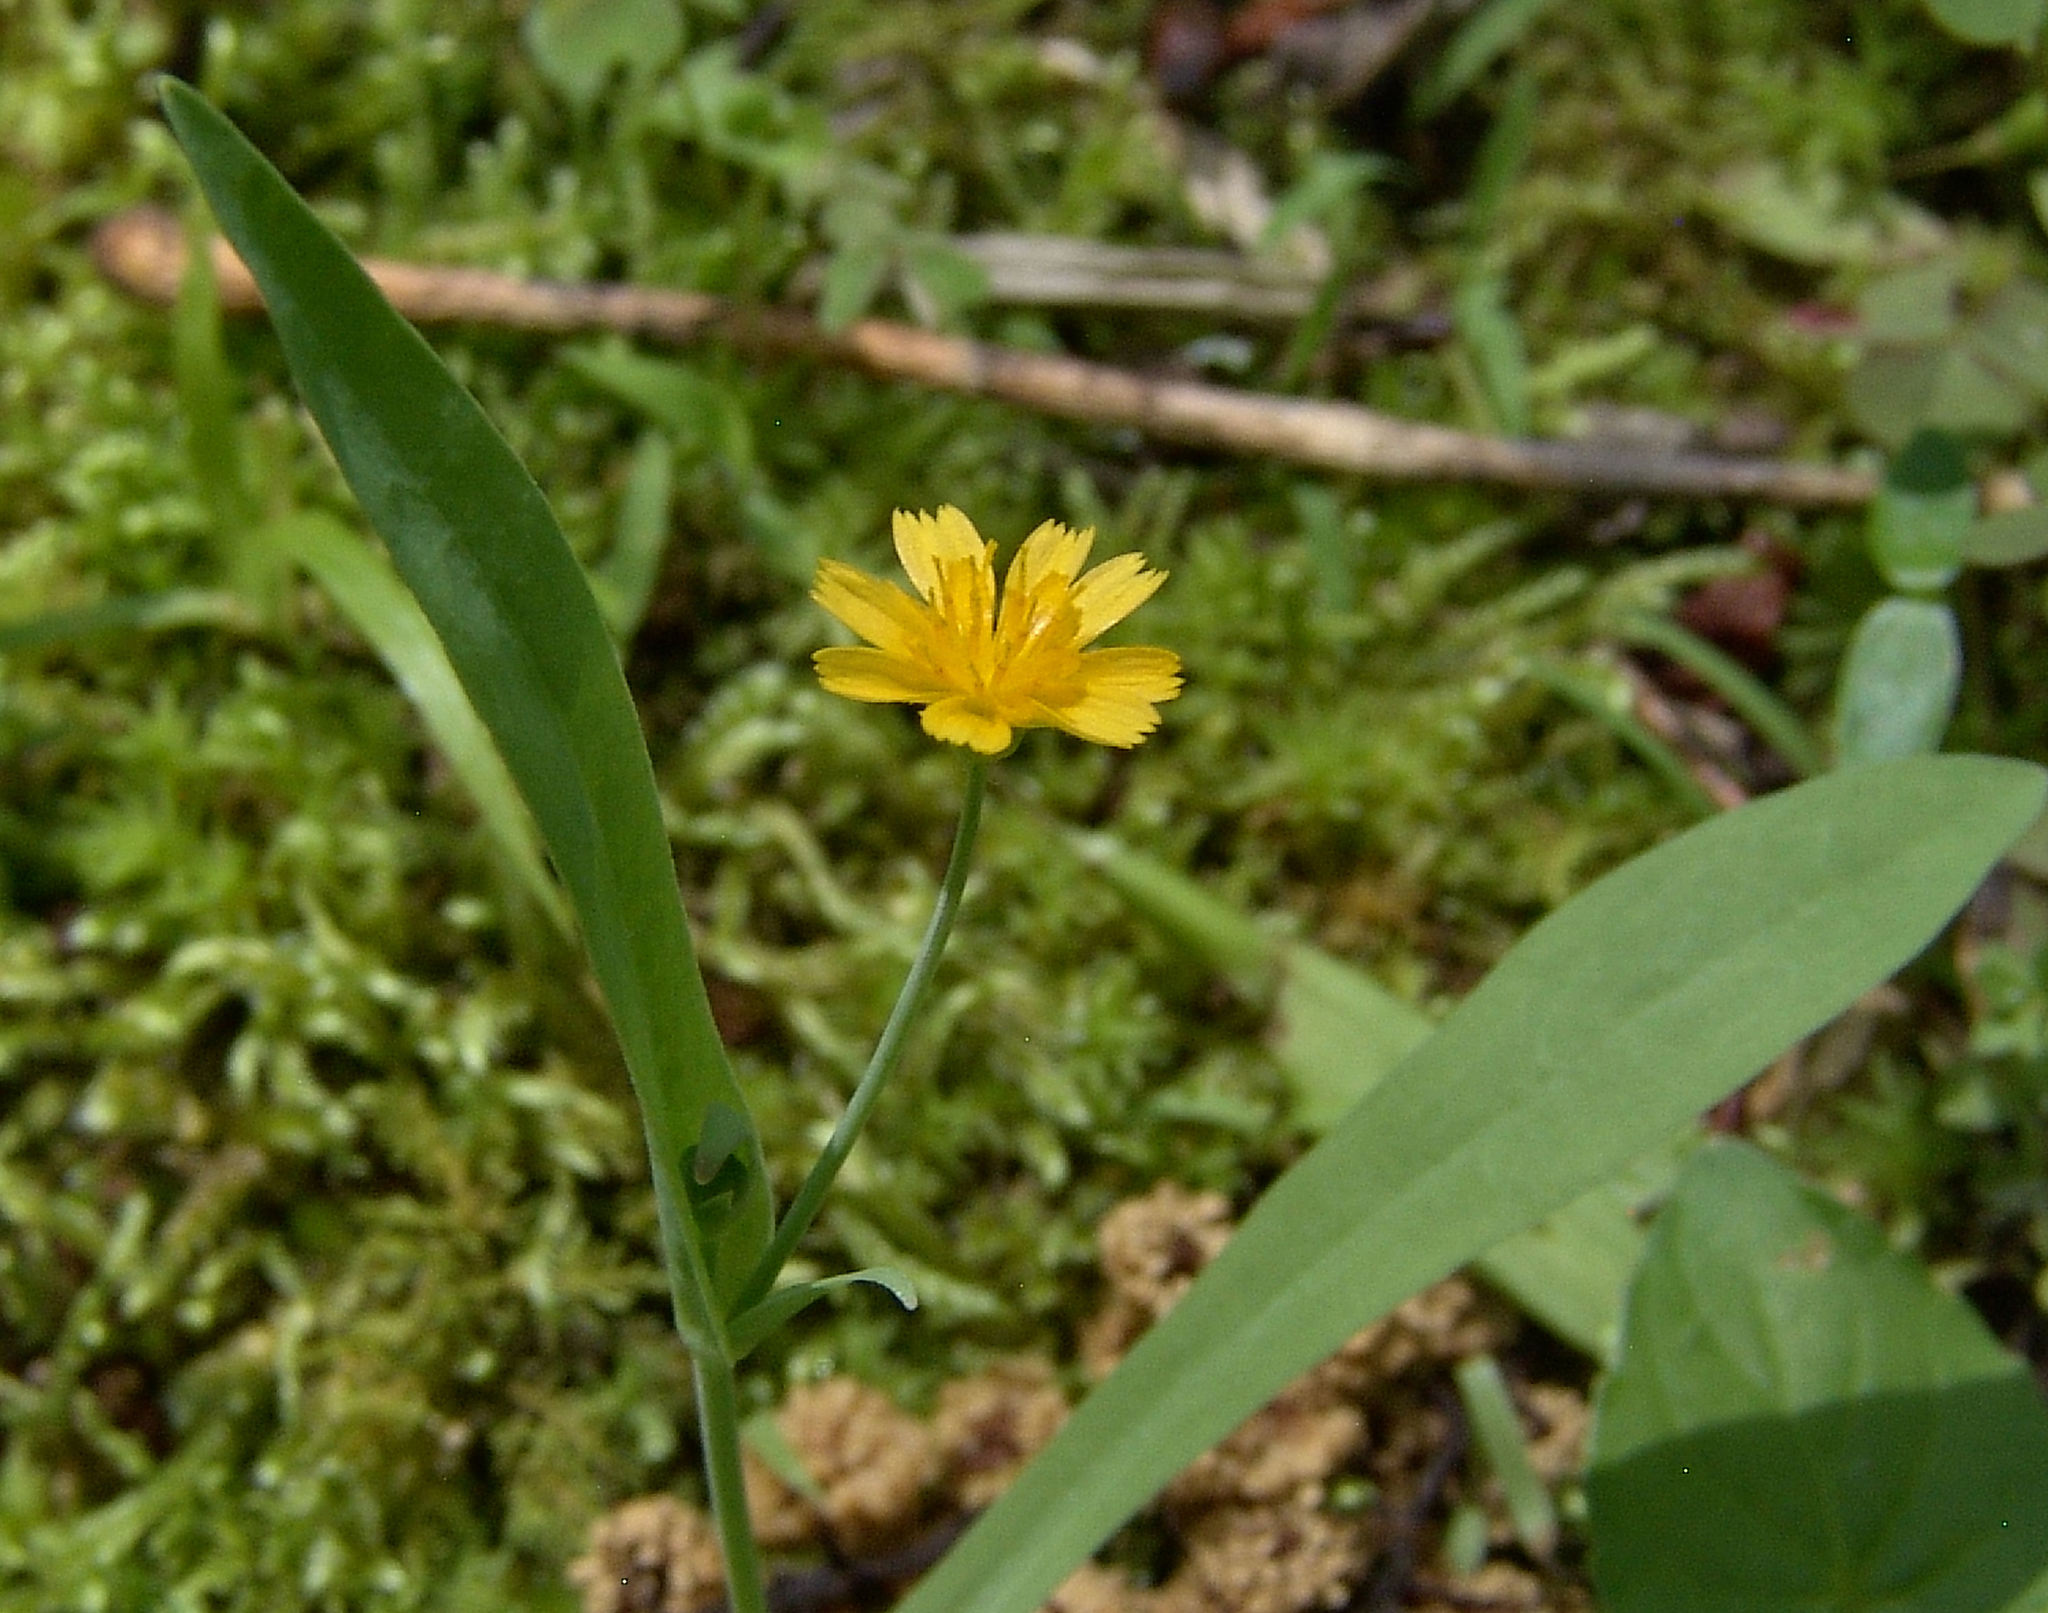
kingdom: Plantae
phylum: Tracheophyta
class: Magnoliopsida
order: Asterales
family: Asteraceae
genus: Krigia
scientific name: Krigia cespitosa
